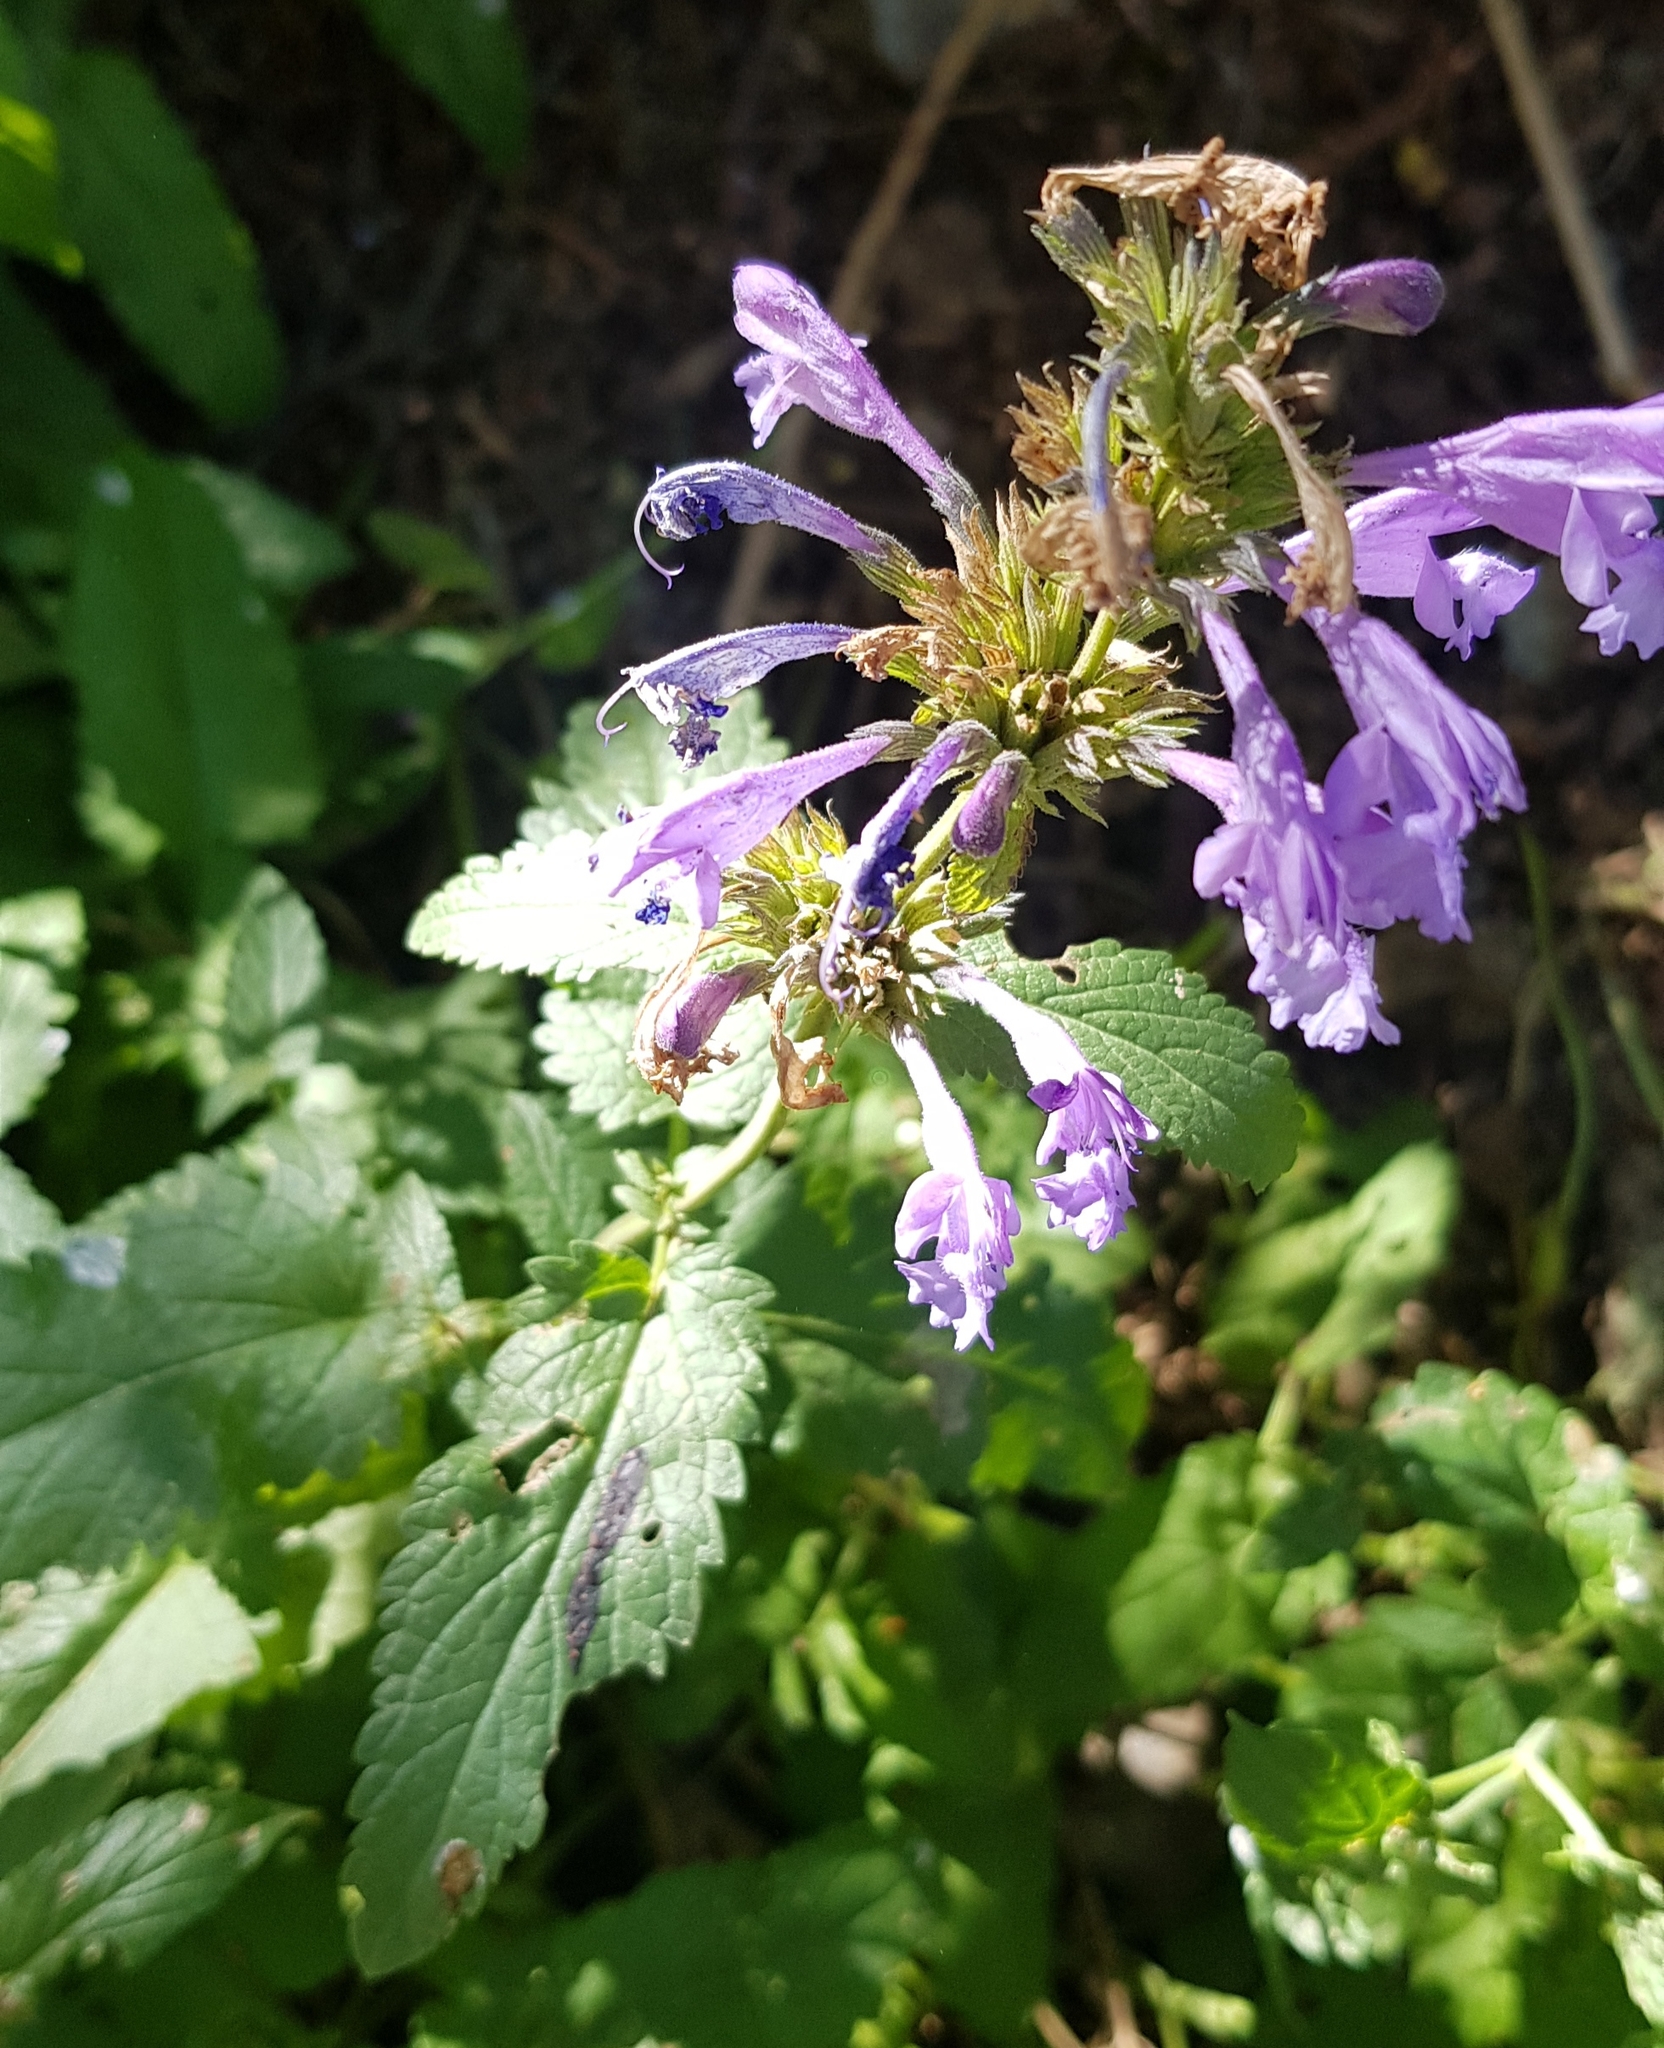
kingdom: Plantae
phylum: Tracheophyta
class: Magnoliopsida
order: Lamiales
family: Lamiaceae
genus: Nepeta
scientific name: Nepeta sibirica
